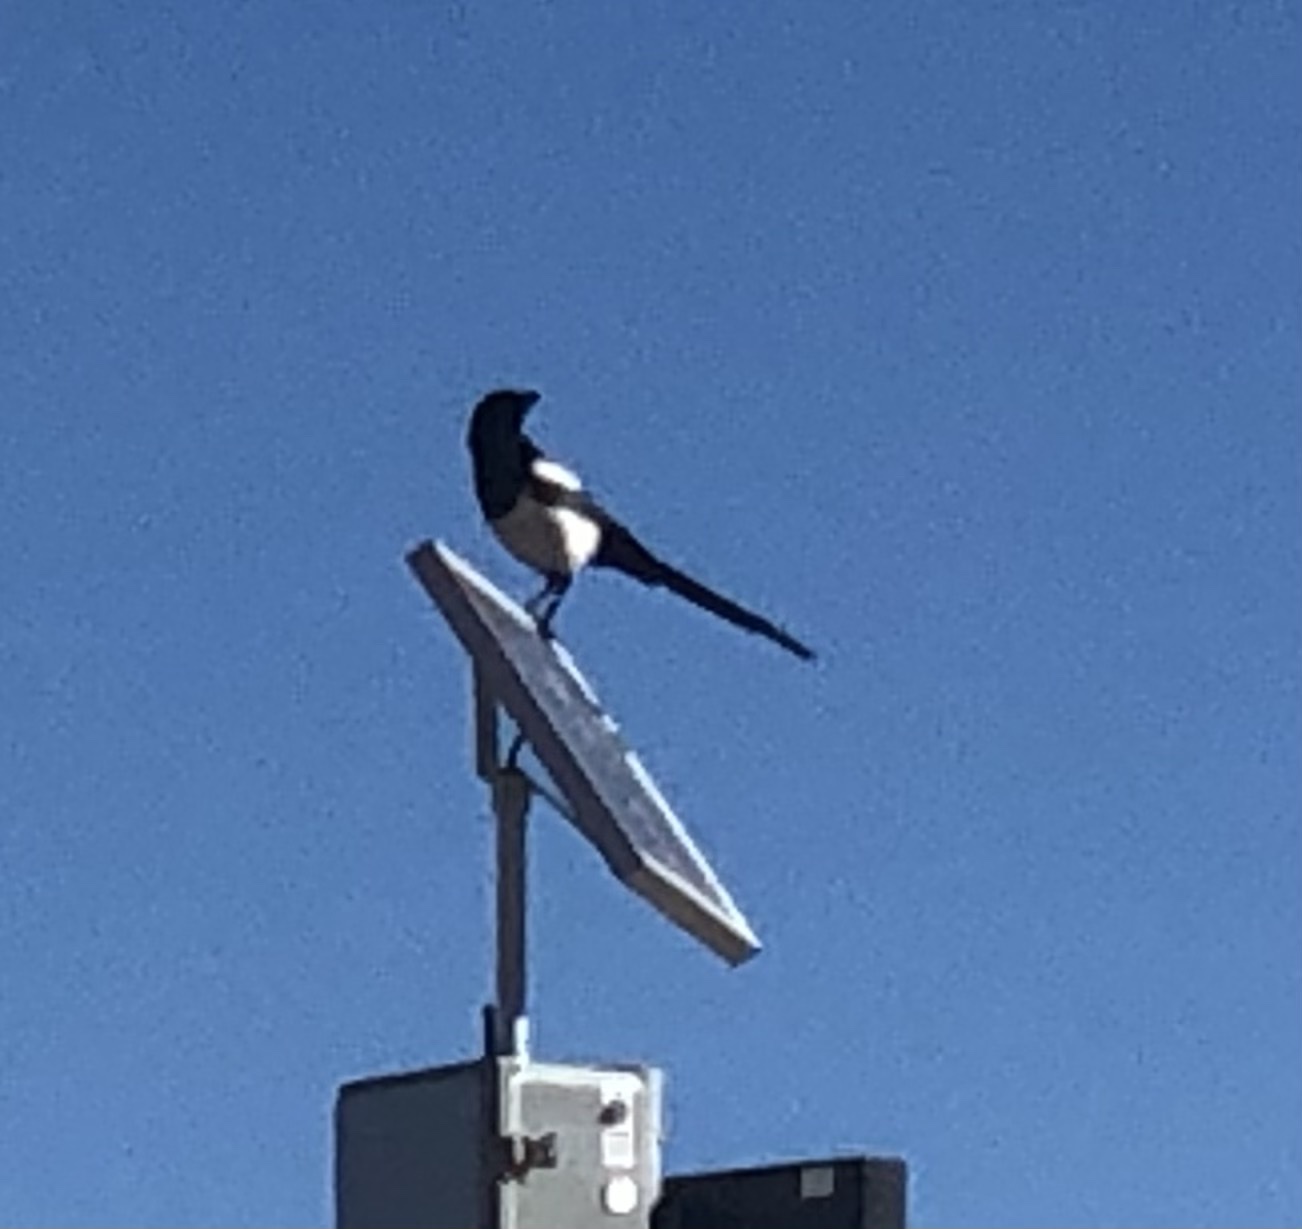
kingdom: Animalia
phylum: Chordata
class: Aves
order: Passeriformes
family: Corvidae
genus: Pica
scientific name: Pica hudsonia
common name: Black-billed magpie
